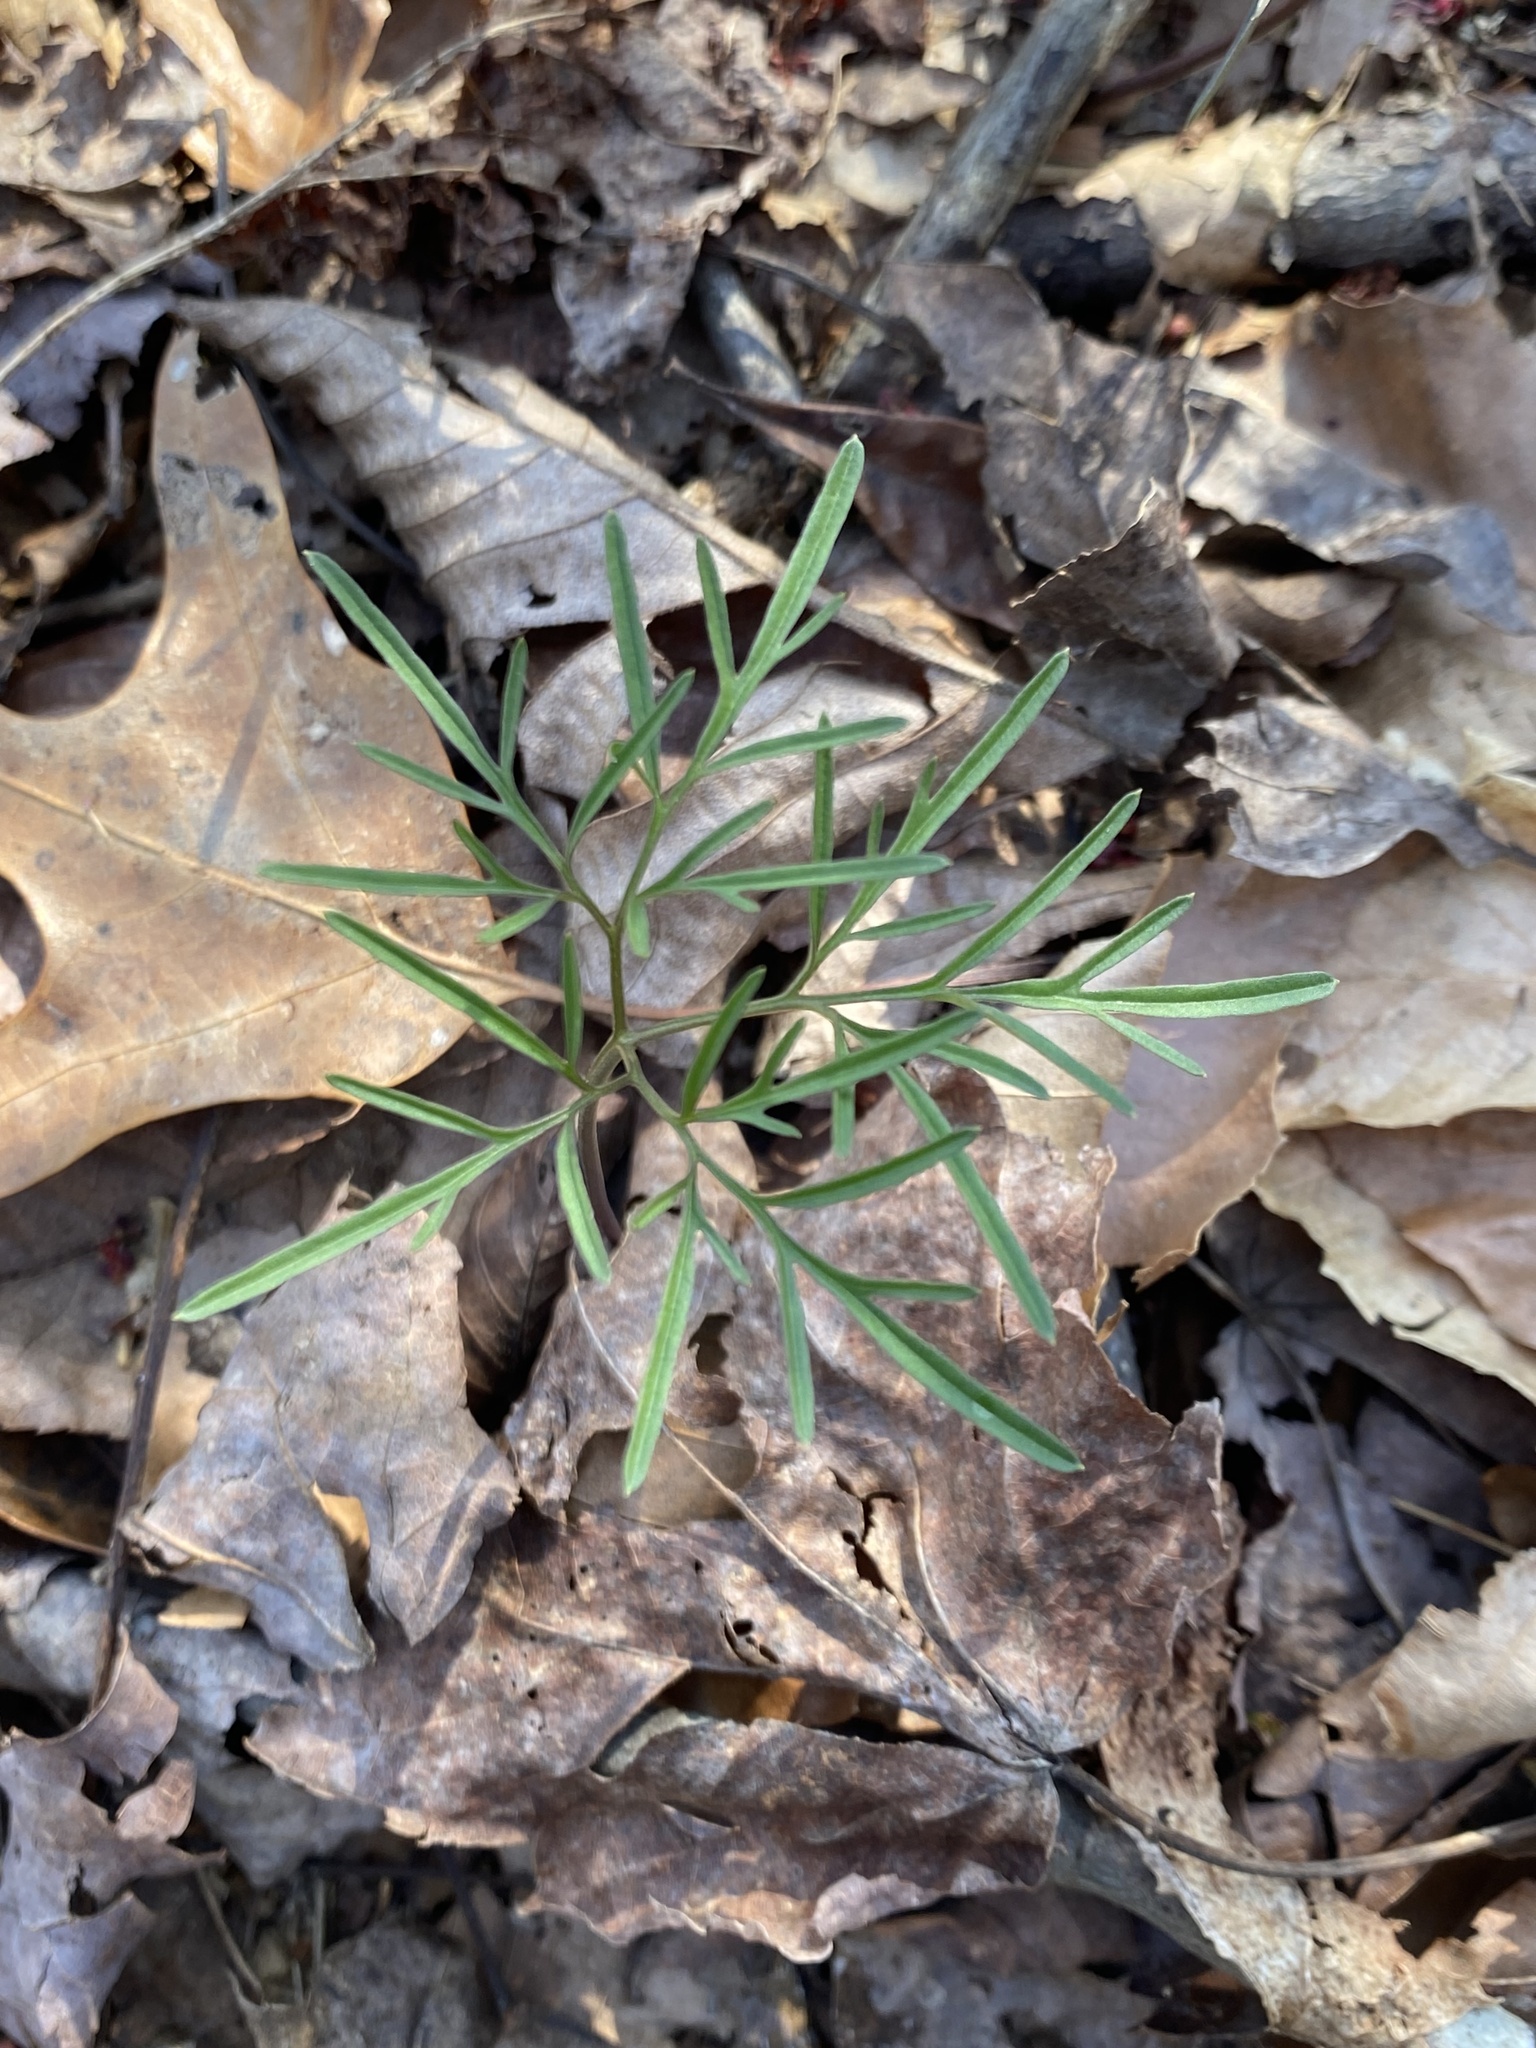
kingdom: Plantae
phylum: Tracheophyta
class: Magnoliopsida
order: Brassicales
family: Brassicaceae
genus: Cardamine
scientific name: Cardamine dissecta
